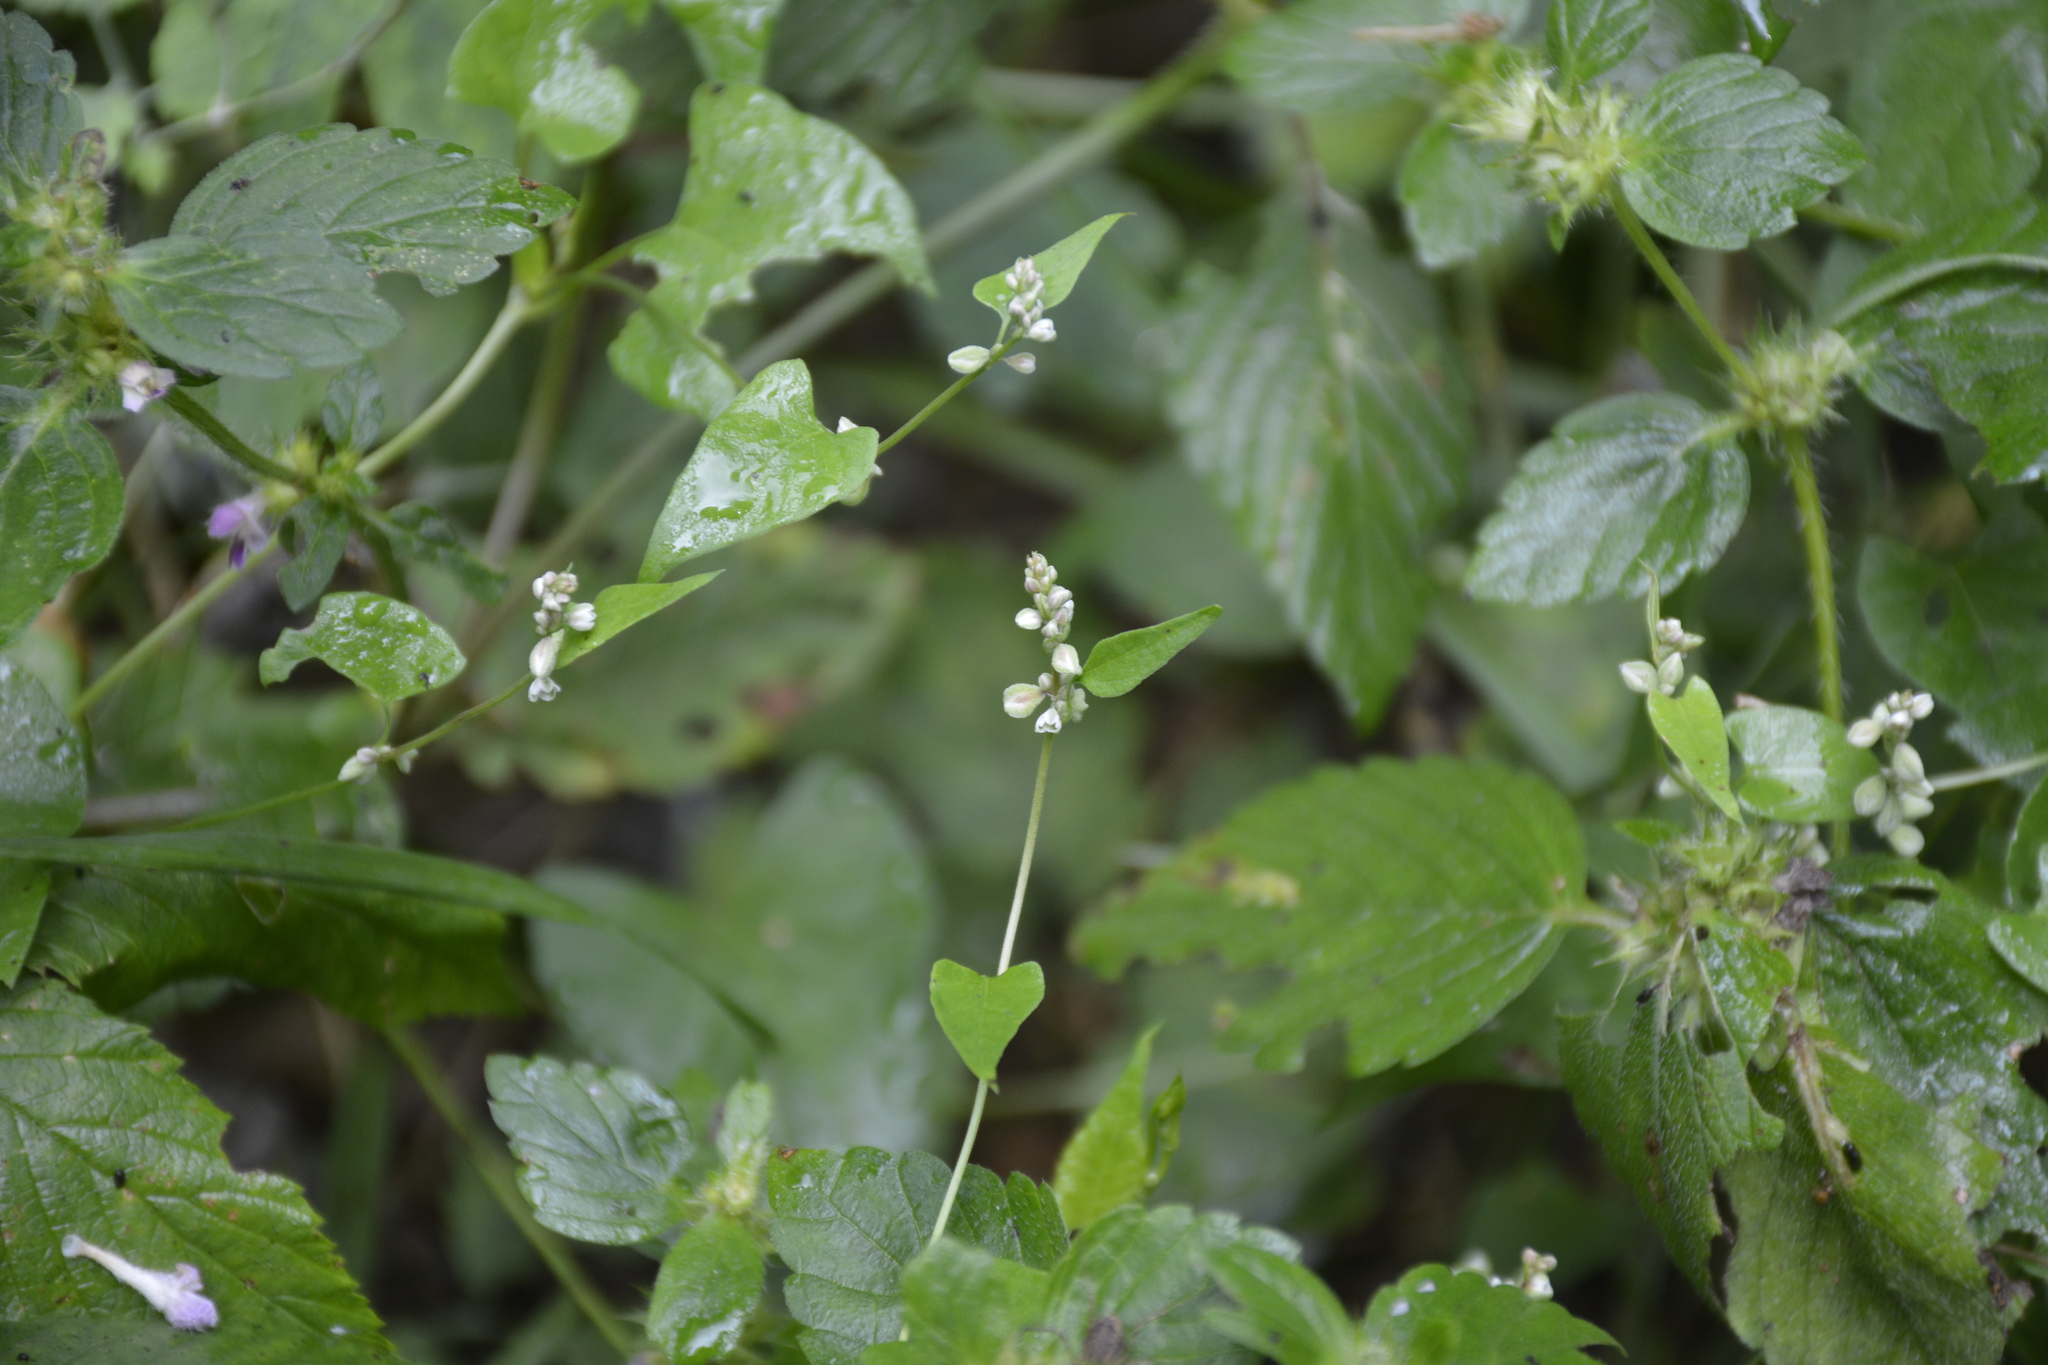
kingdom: Plantae
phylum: Tracheophyta
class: Magnoliopsida
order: Caryophyllales
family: Polygonaceae
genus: Fallopia
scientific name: Fallopia convolvulus
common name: Black bindweed
